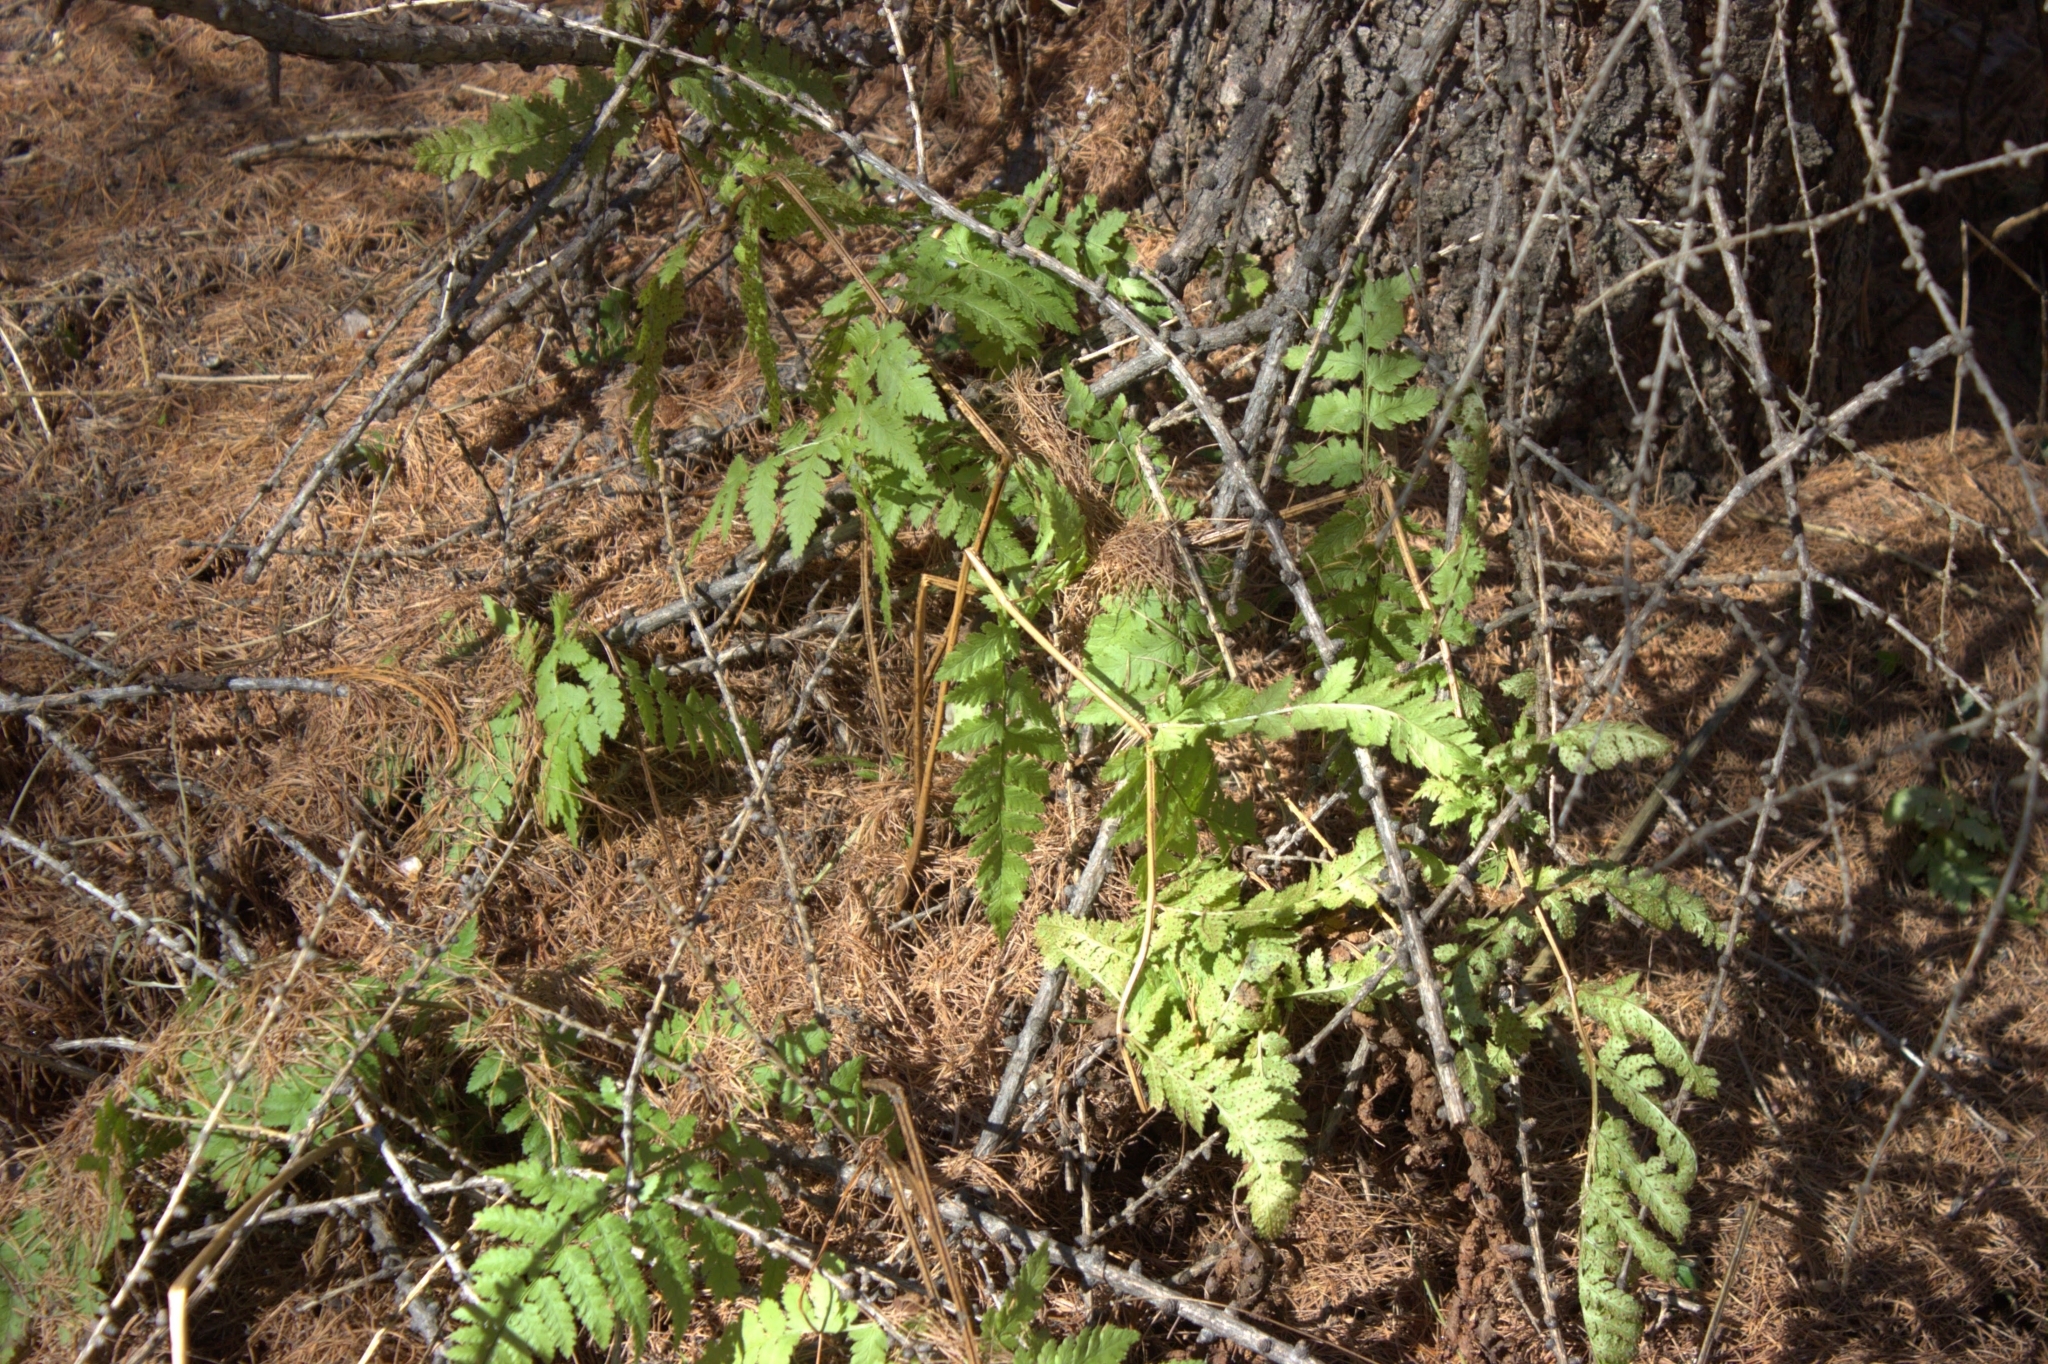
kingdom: Plantae
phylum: Tracheophyta
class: Polypodiopsida
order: Polypodiales
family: Dryopteridaceae
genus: Dryopteris
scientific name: Dryopteris carthusiana
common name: Narrow buckler-fern
